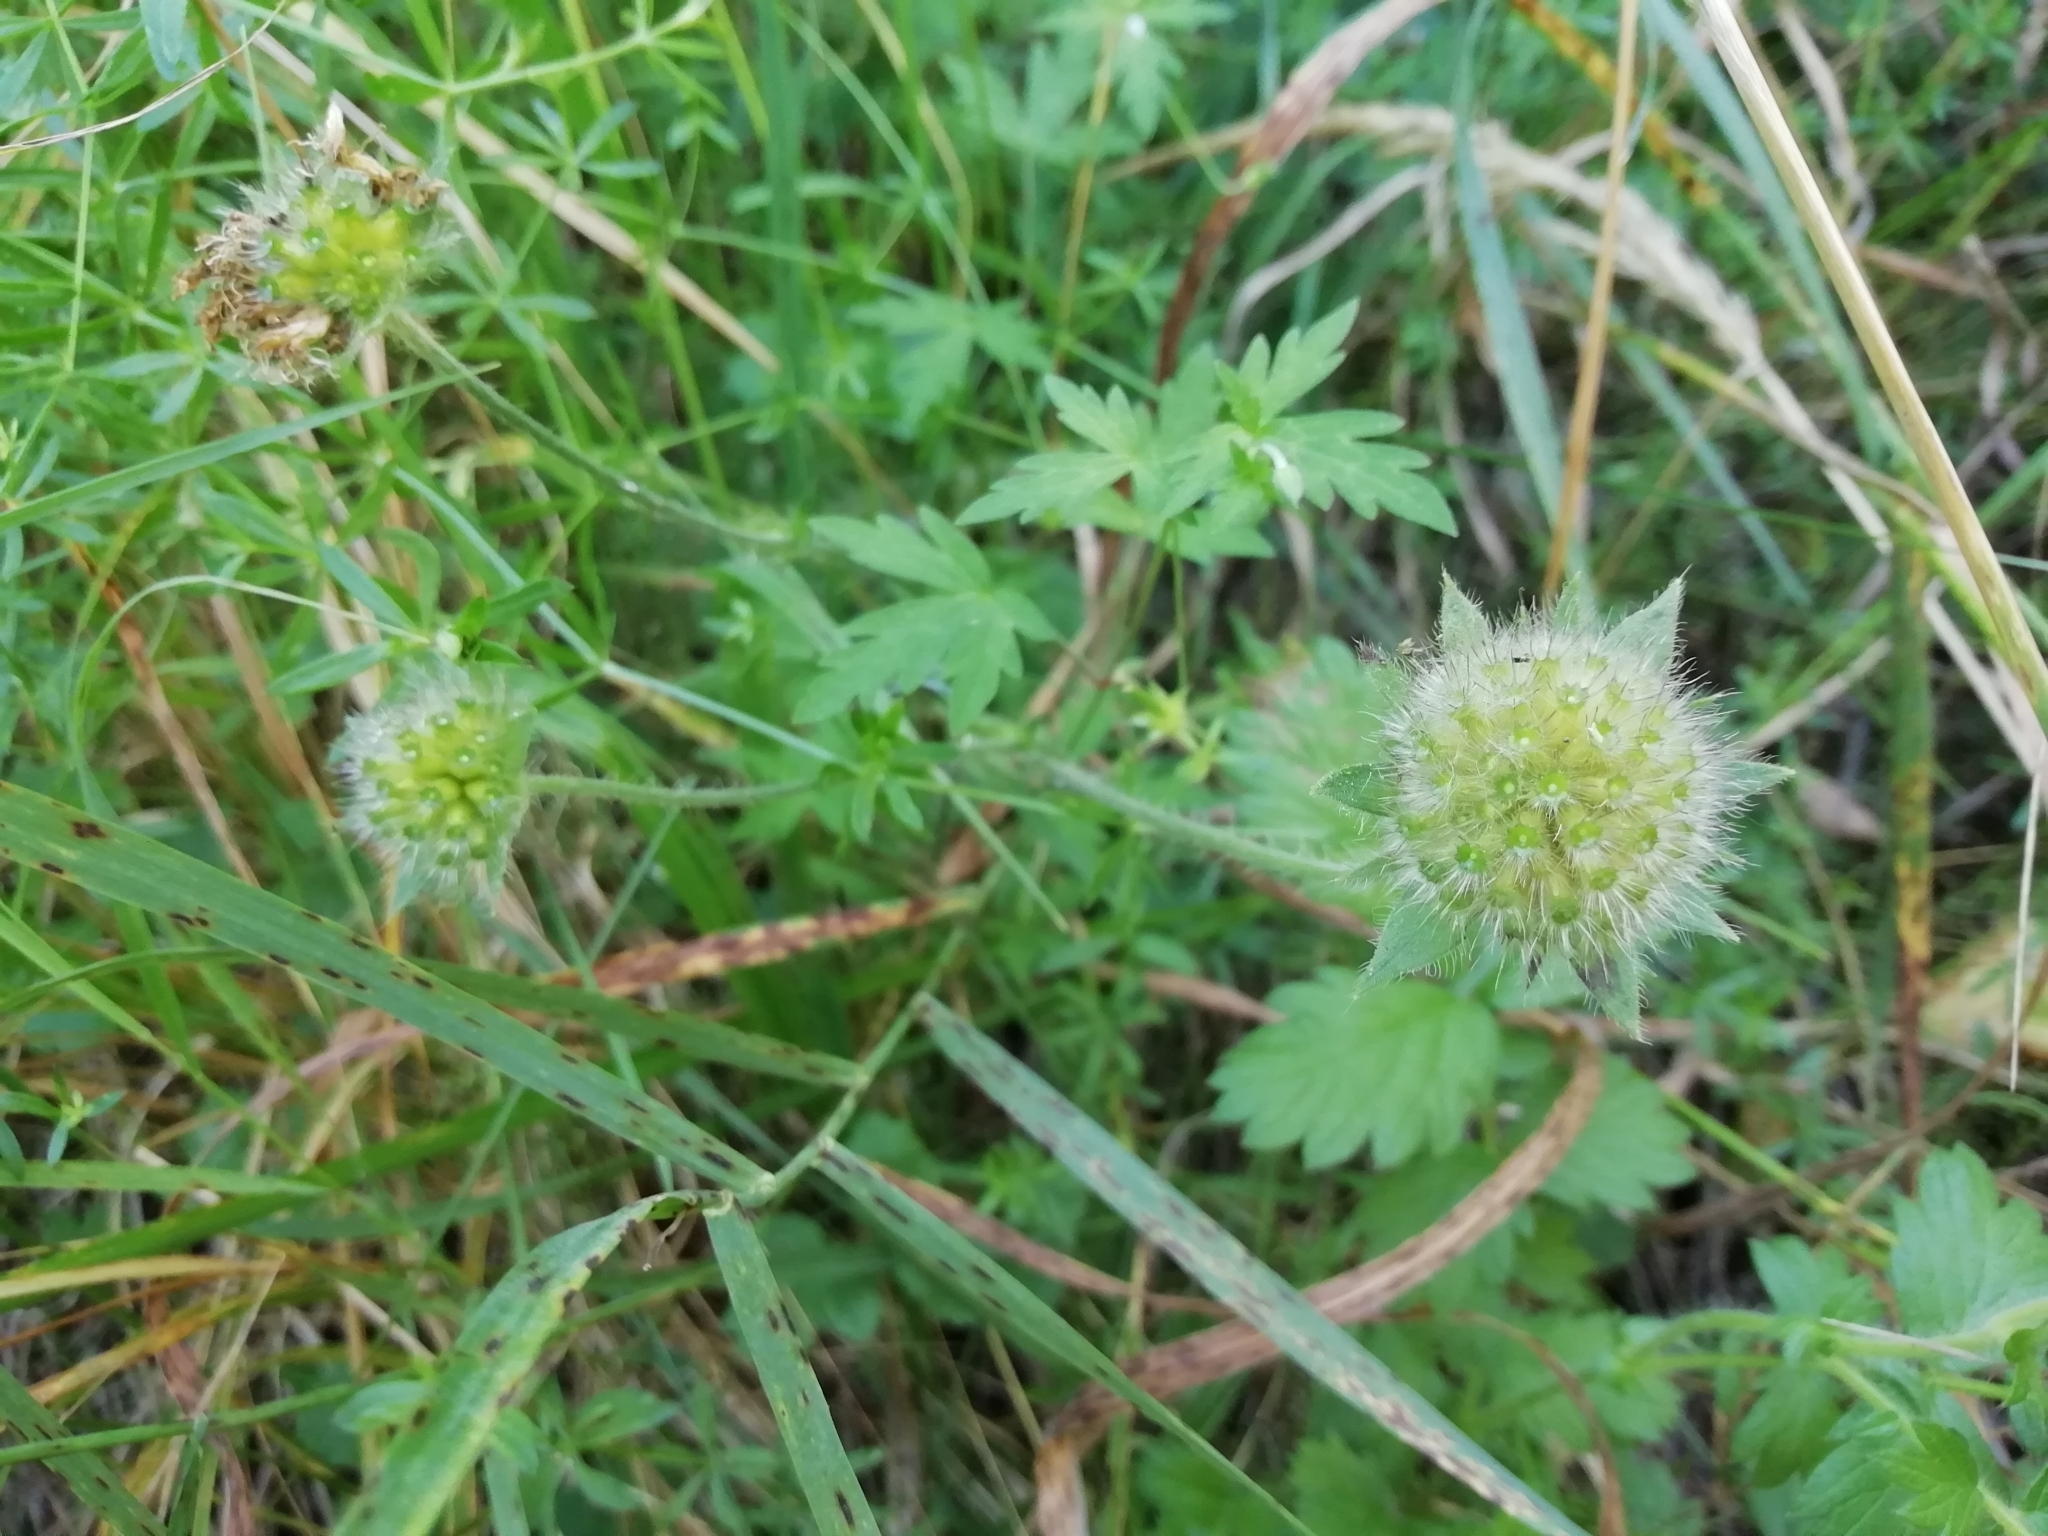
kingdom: Plantae
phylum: Tracheophyta
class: Magnoliopsida
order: Dipsacales
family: Caprifoliaceae
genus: Knautia
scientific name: Knautia arvensis
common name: Field scabiosa
